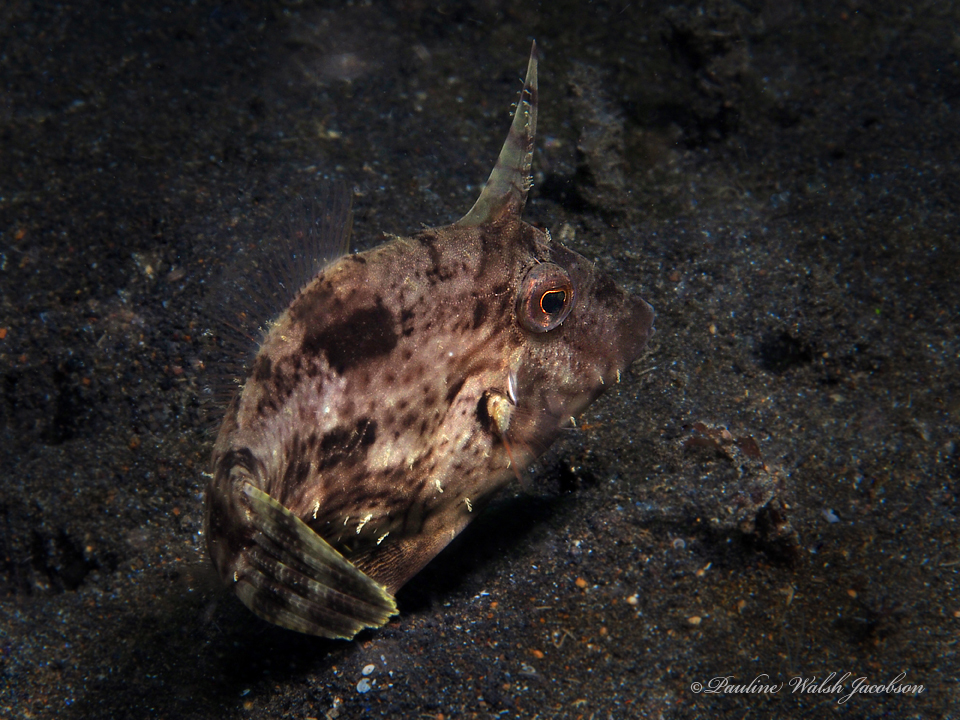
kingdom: Animalia
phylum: Chordata
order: Tetraodontiformes
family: Monacanthidae
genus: Pseudomonacanthus
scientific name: Pseudomonacanthus macrurus
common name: Blotchy filefish
